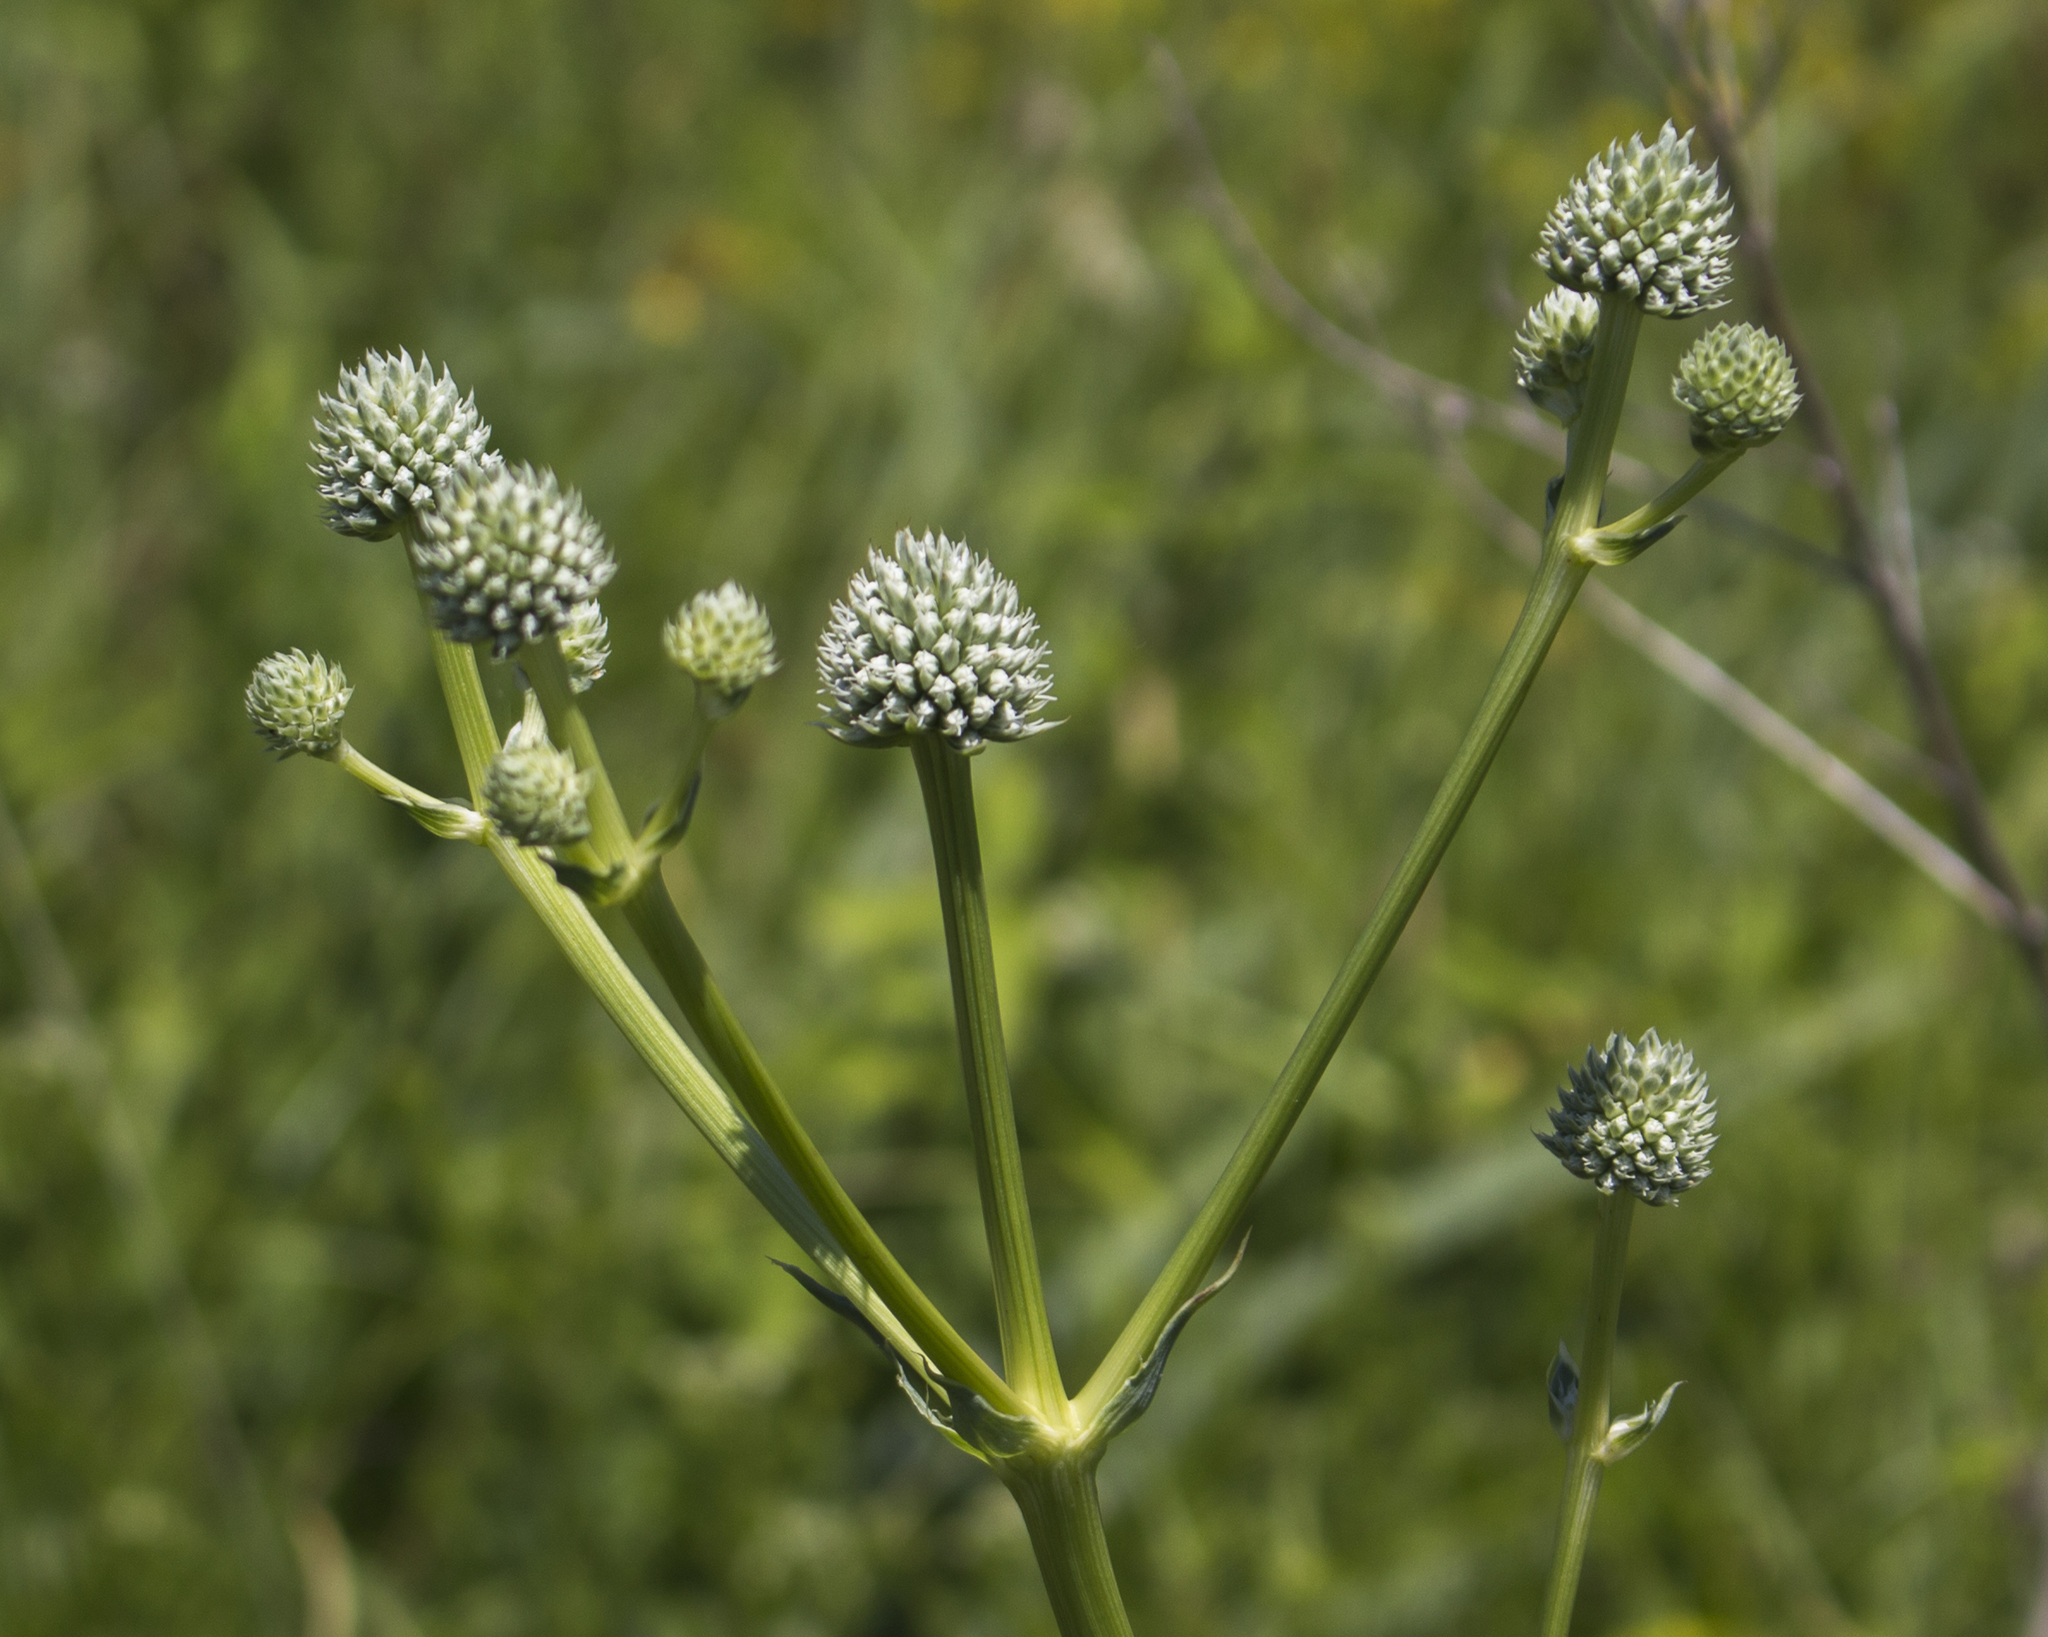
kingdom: Plantae
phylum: Tracheophyta
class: Magnoliopsida
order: Apiales
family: Apiaceae
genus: Eryngium
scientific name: Eryngium yuccifolium
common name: Button eryngo
